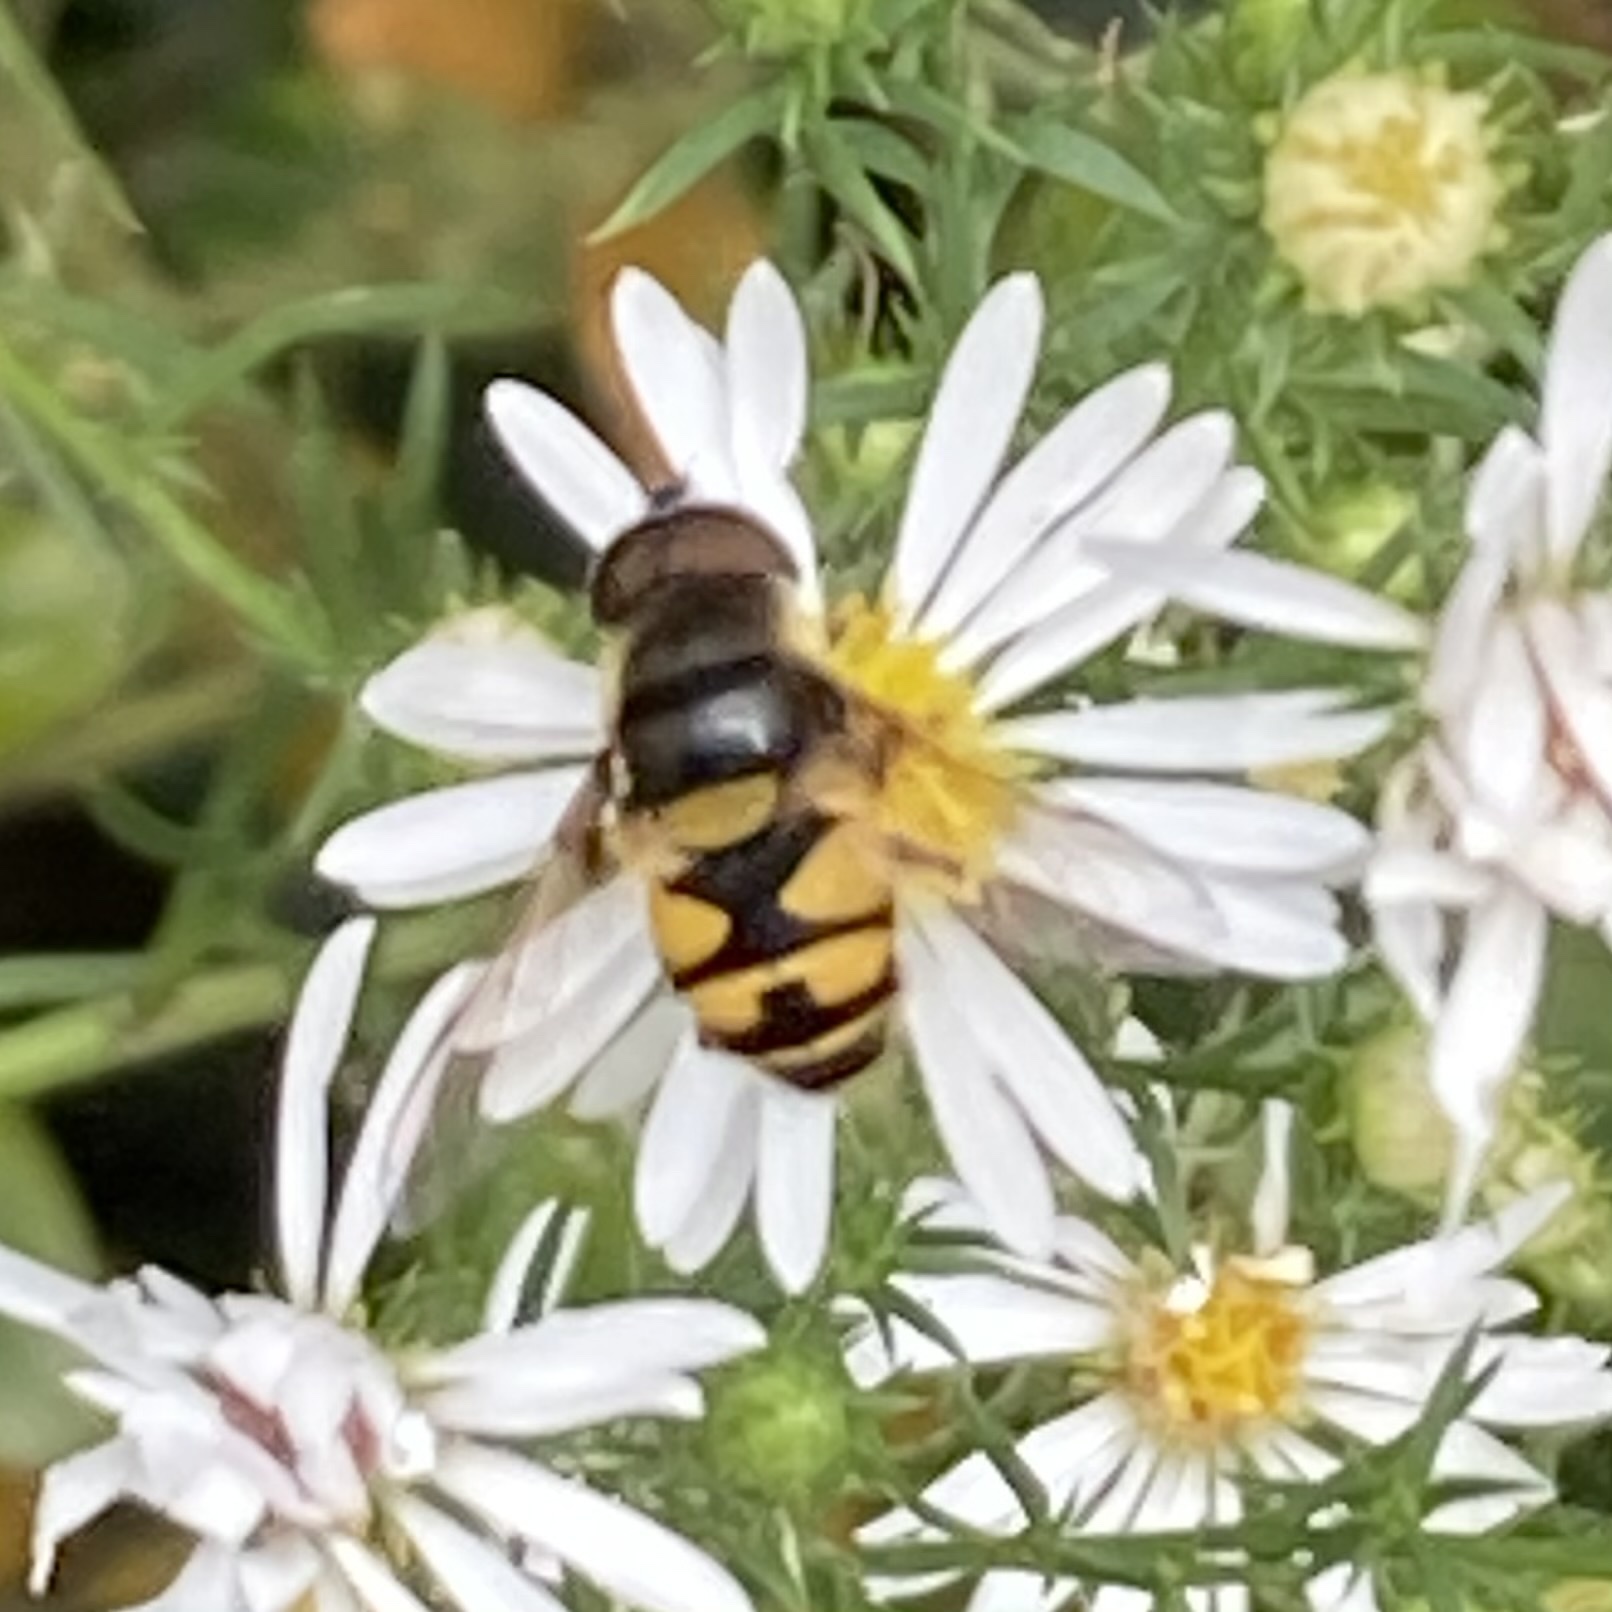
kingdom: Animalia
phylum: Arthropoda
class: Insecta
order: Diptera
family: Syrphidae
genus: Eristalis
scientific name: Eristalis transversa
